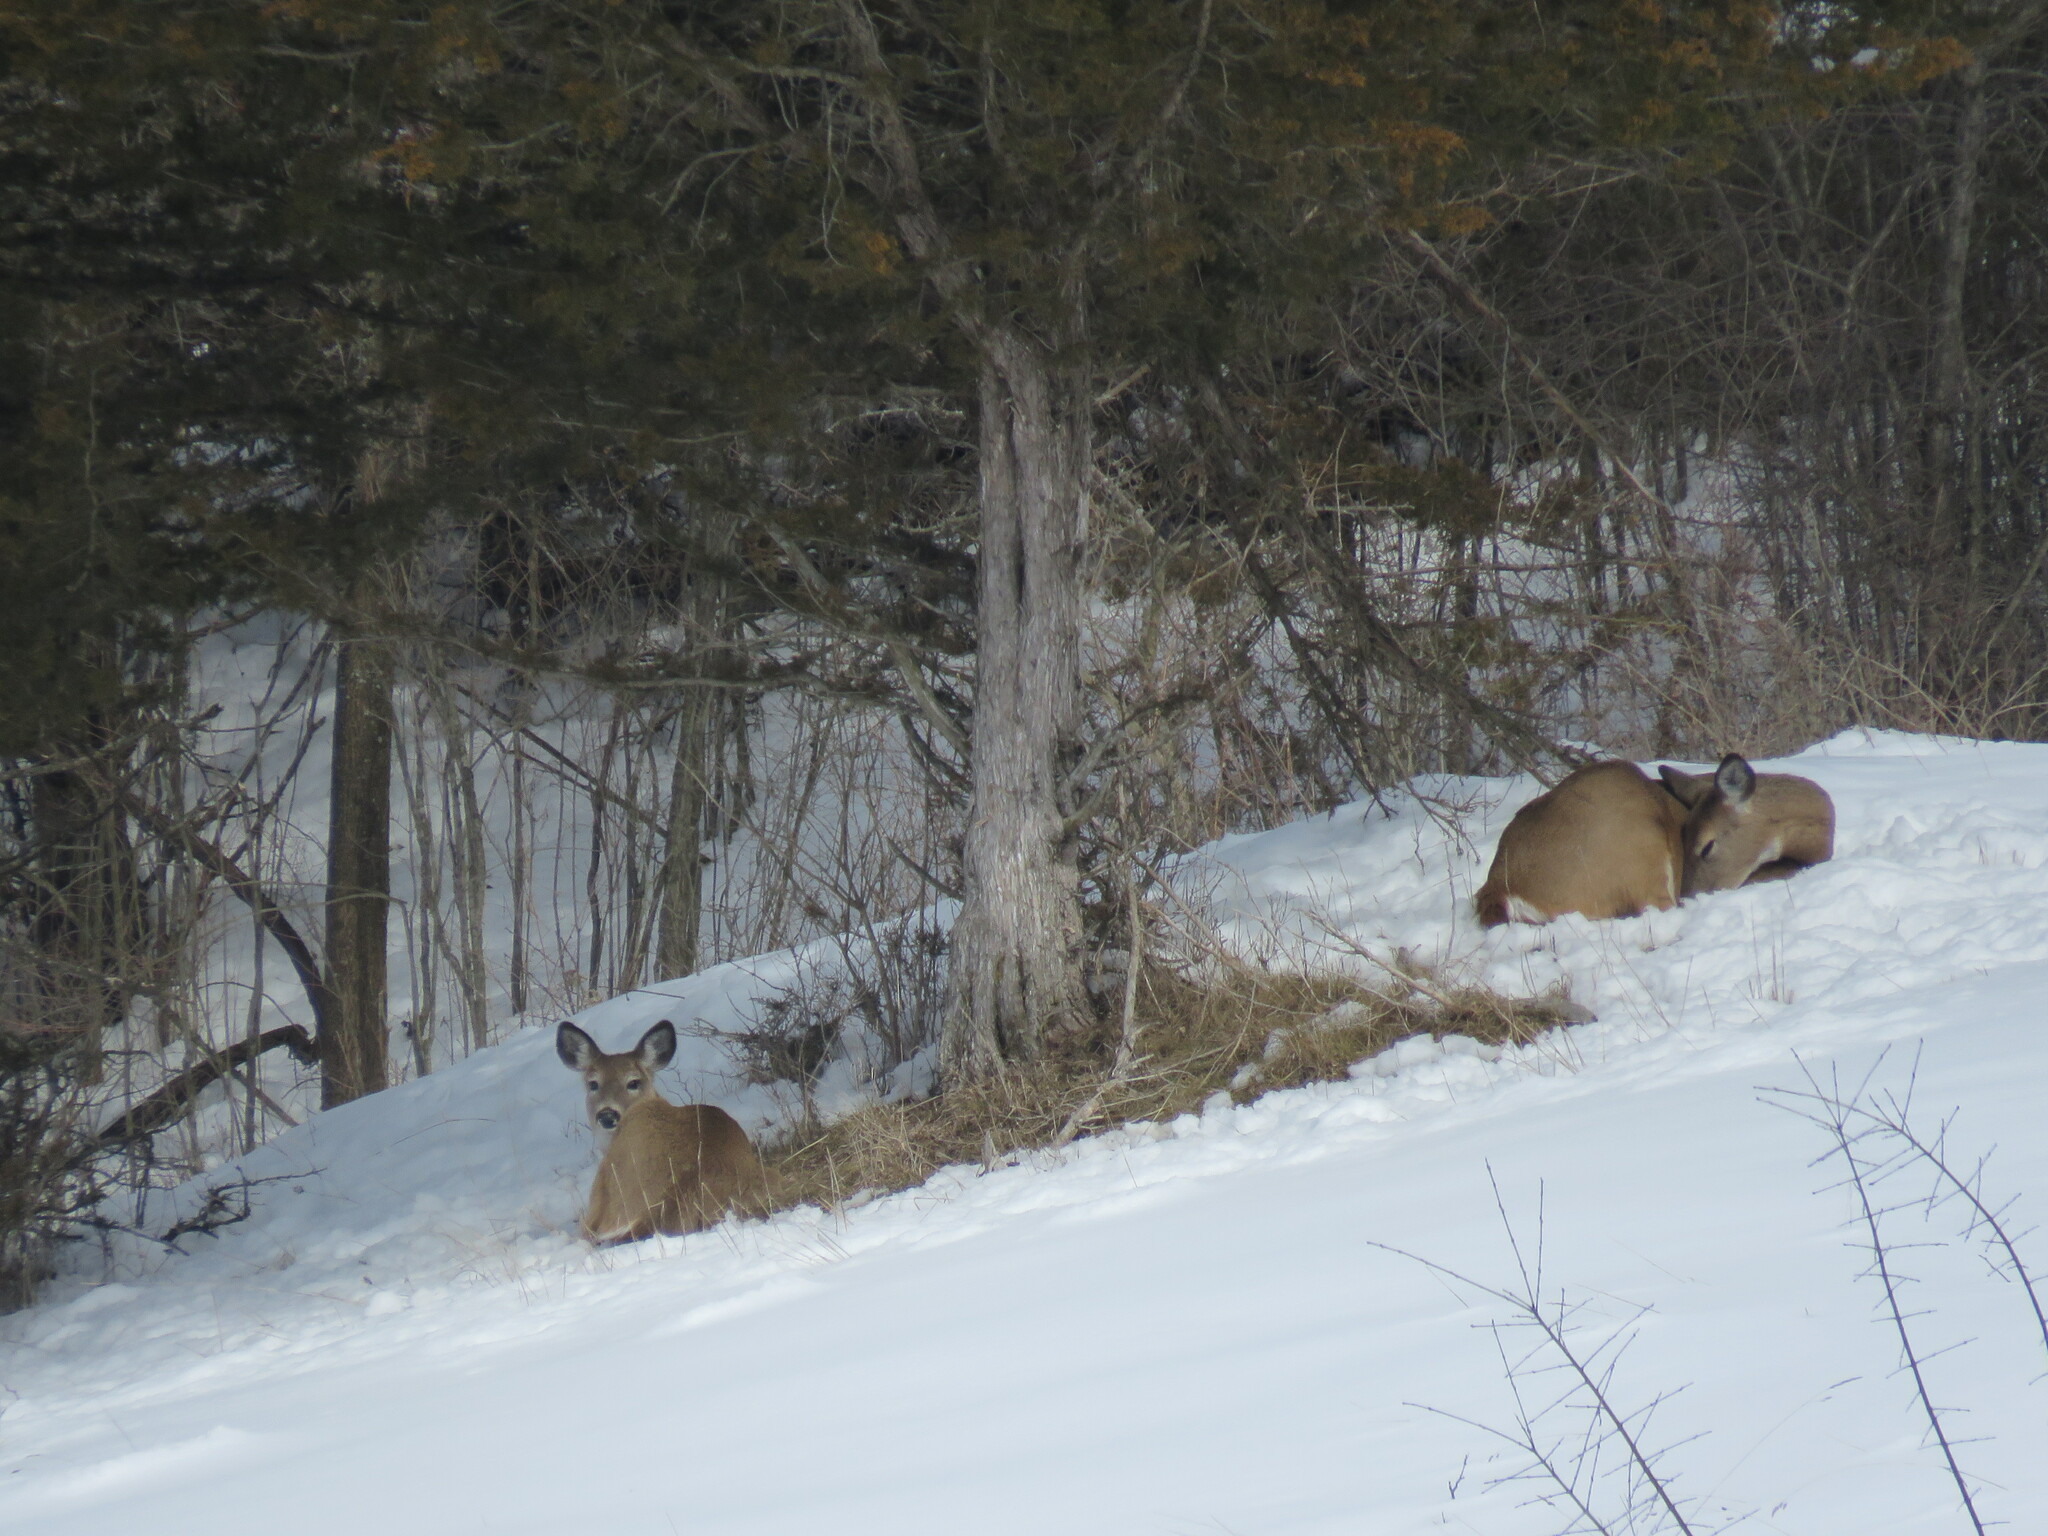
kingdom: Animalia
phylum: Chordata
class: Mammalia
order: Artiodactyla
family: Cervidae
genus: Odocoileus
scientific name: Odocoileus virginianus
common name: White-tailed deer
